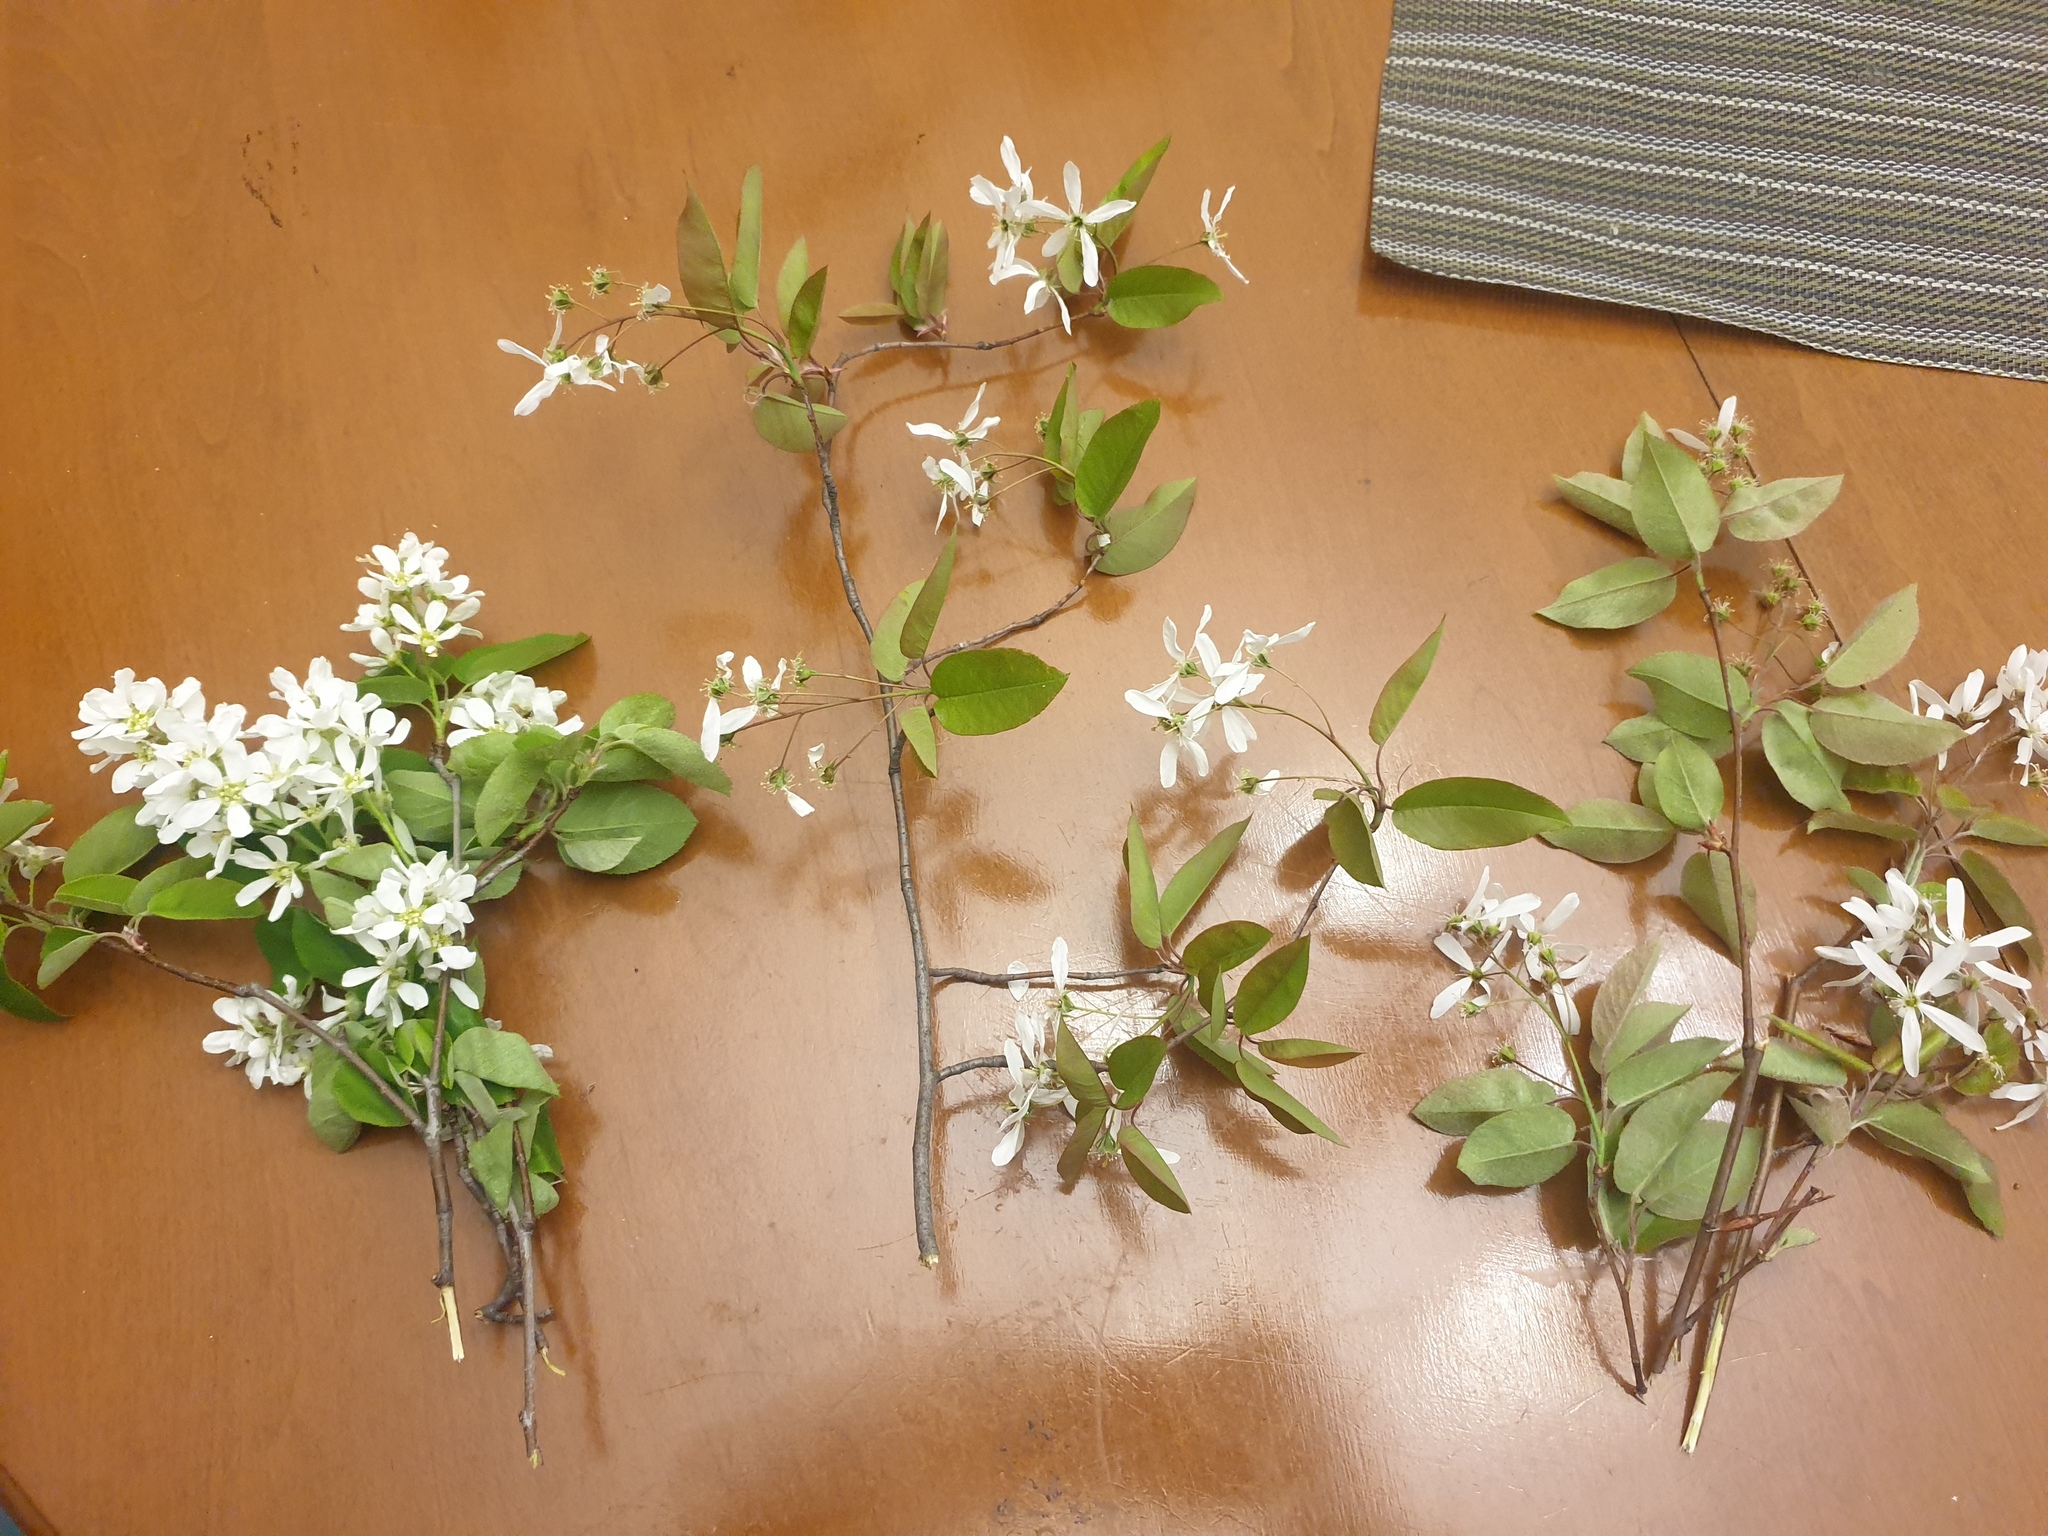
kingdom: Plantae
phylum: Tracheophyta
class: Magnoliopsida
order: Rosales
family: Rosaceae
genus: Amelanchier
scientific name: Amelanchier laevis
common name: Allegheny serviceberry
